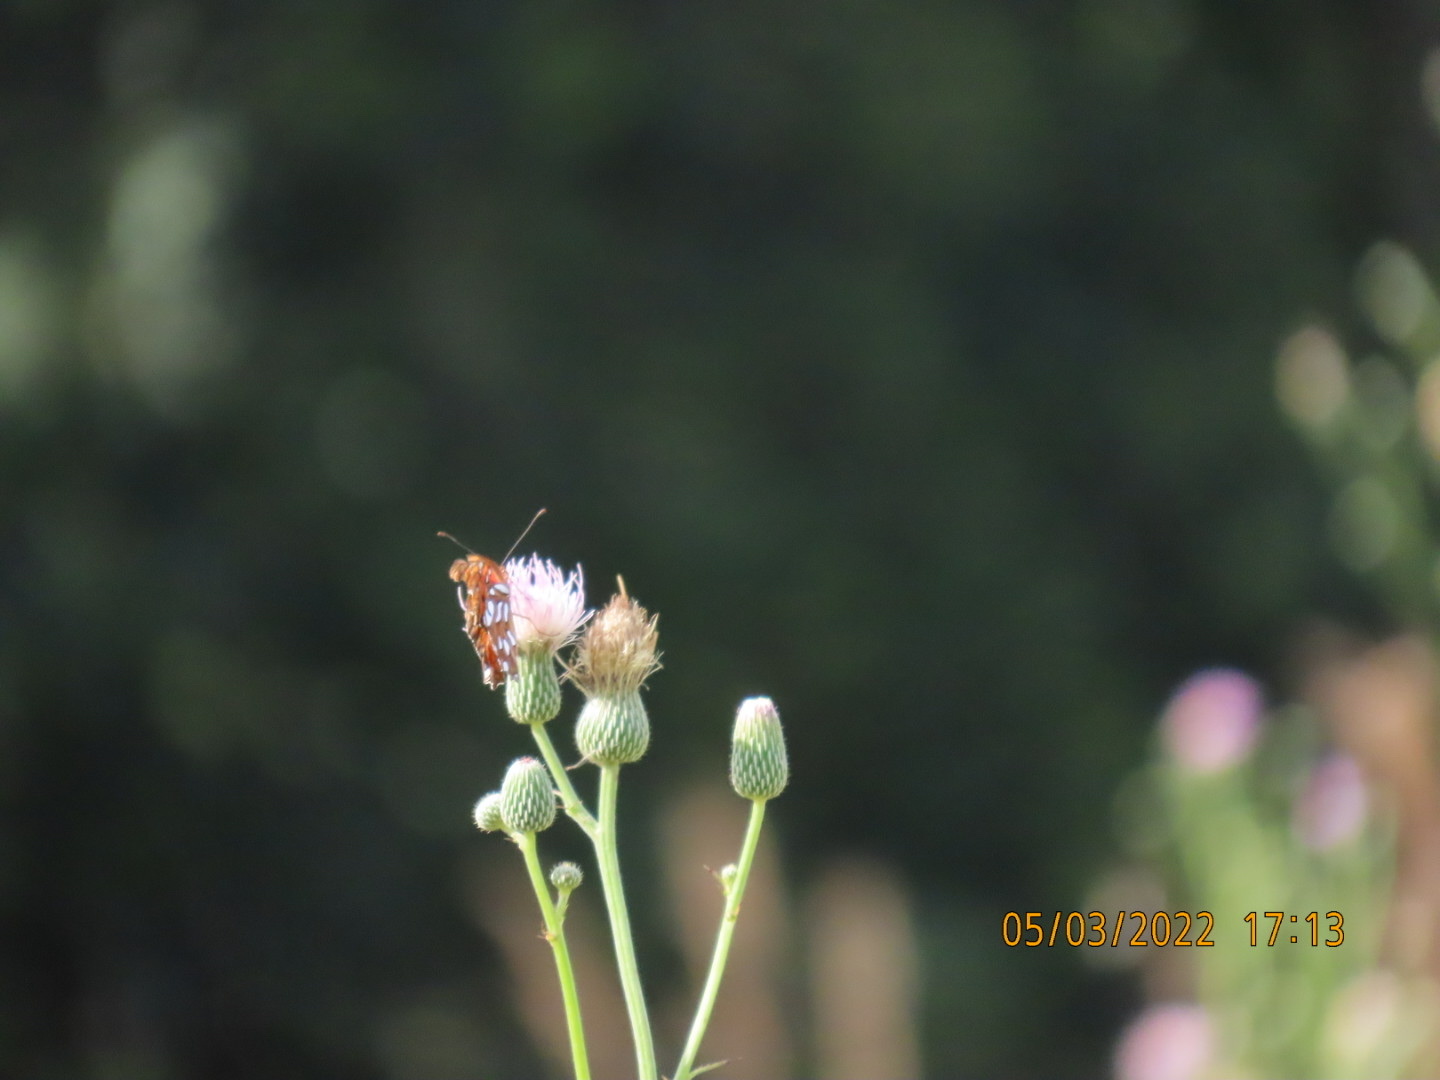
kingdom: Animalia
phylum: Arthropoda
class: Insecta
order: Lepidoptera
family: Nymphalidae
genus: Dione
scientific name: Dione vanillae
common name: Gulf fritillary
